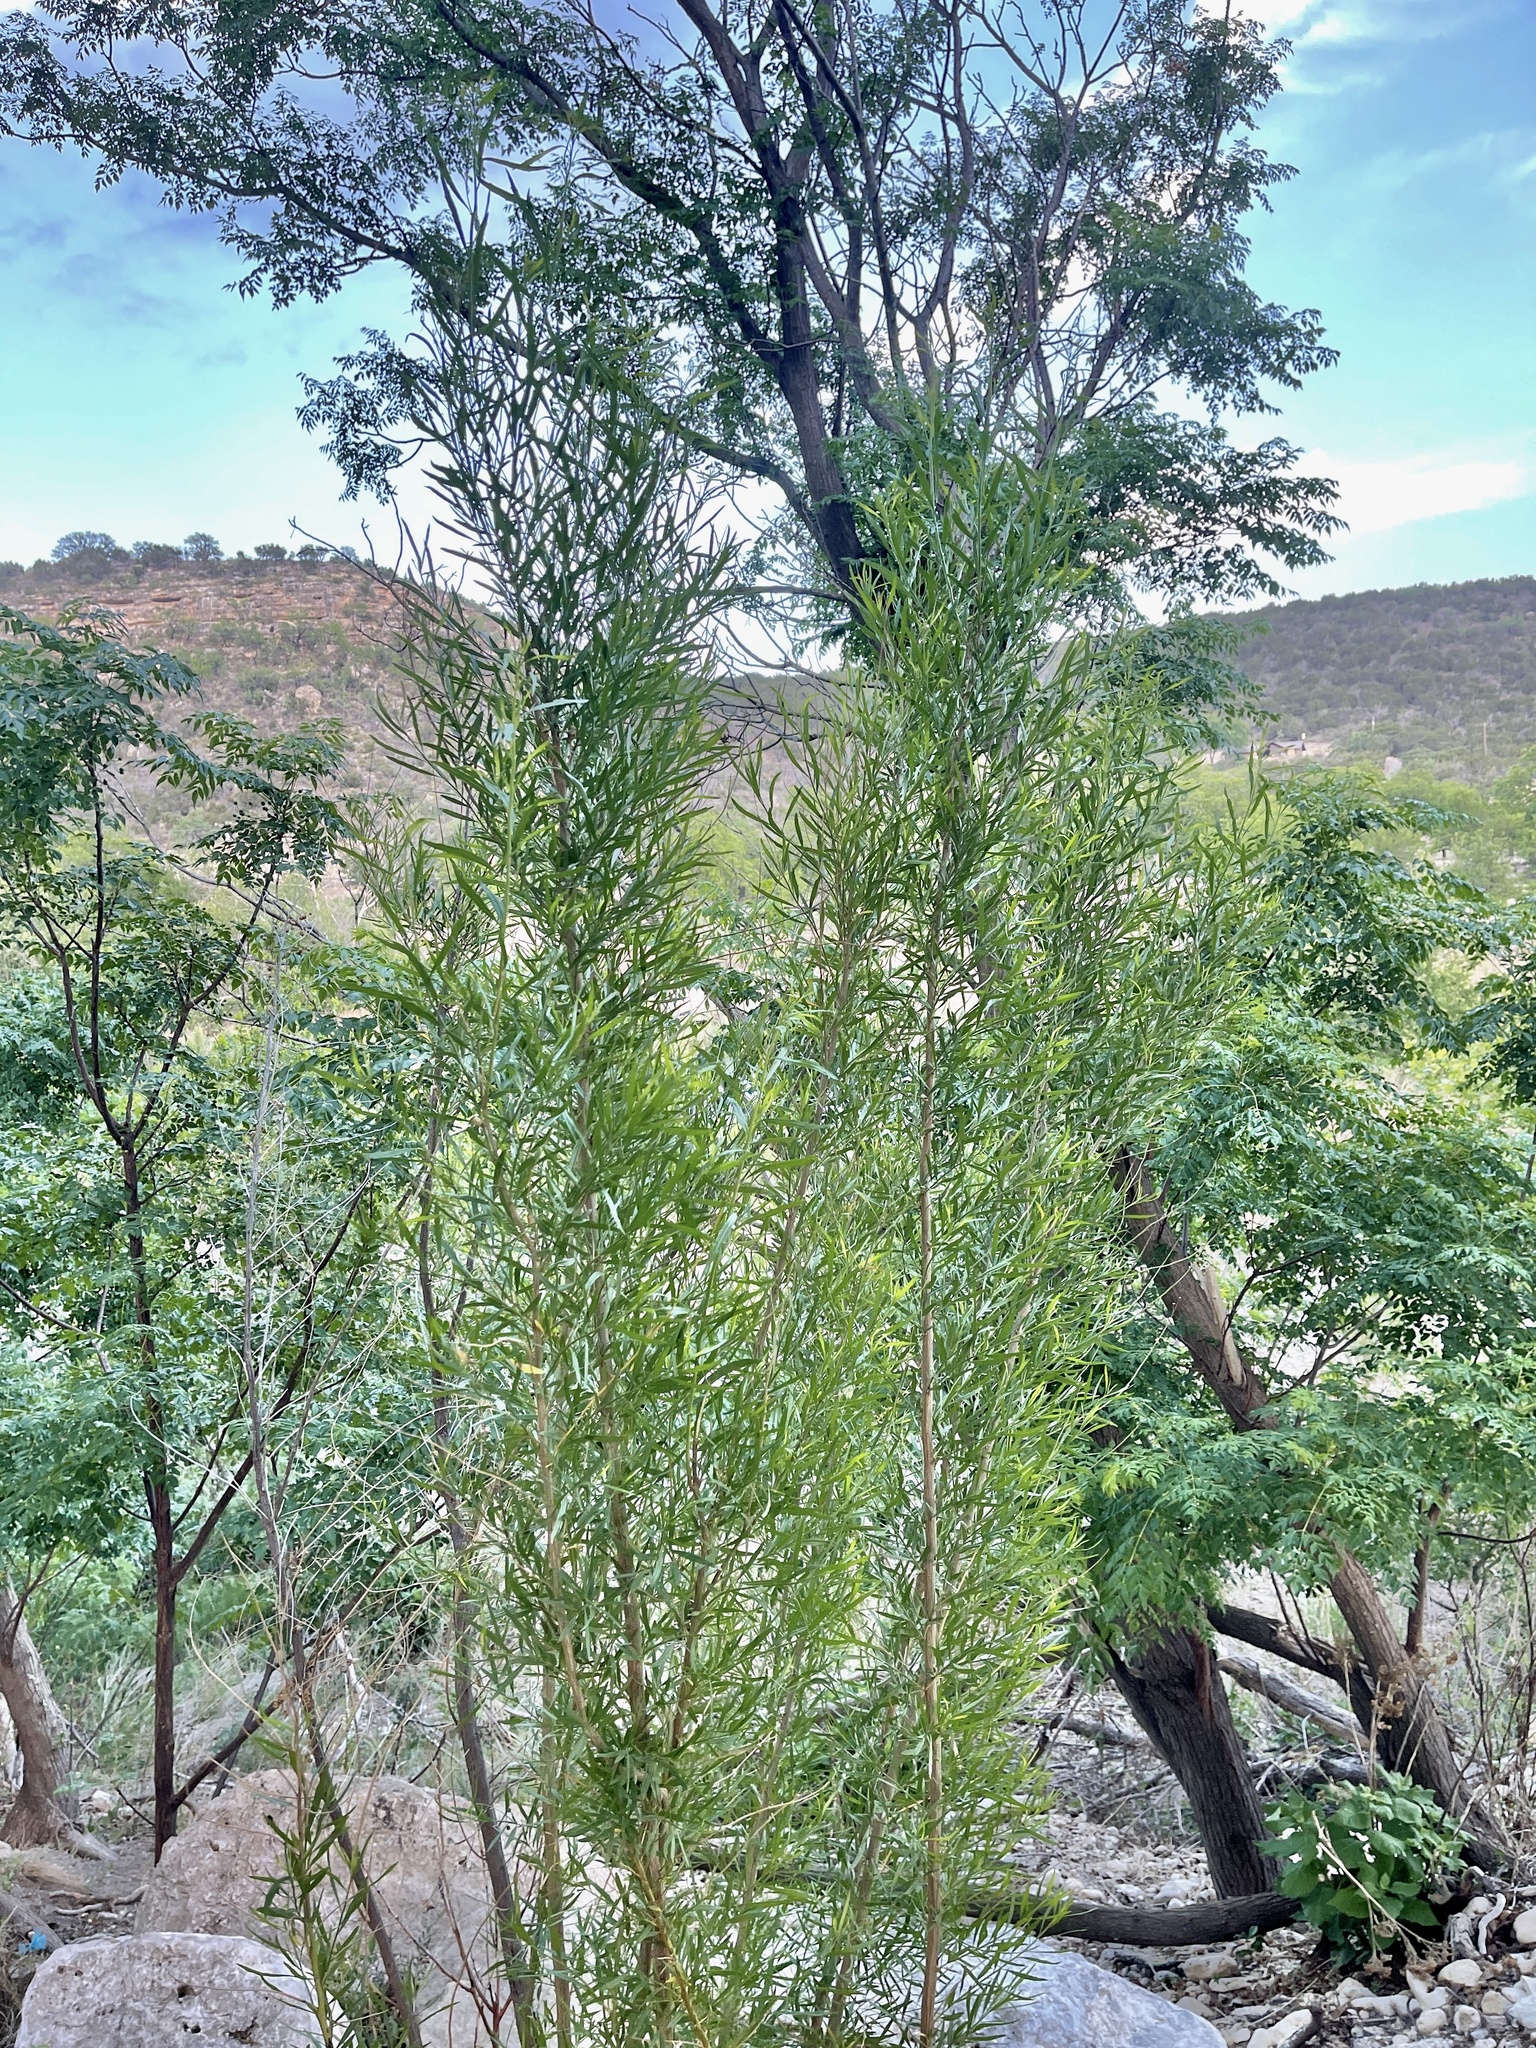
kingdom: Plantae
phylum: Tracheophyta
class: Magnoliopsida
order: Asterales
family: Asteraceae
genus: Baccharis
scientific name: Baccharis neglecta
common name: Roosevelt-weed
